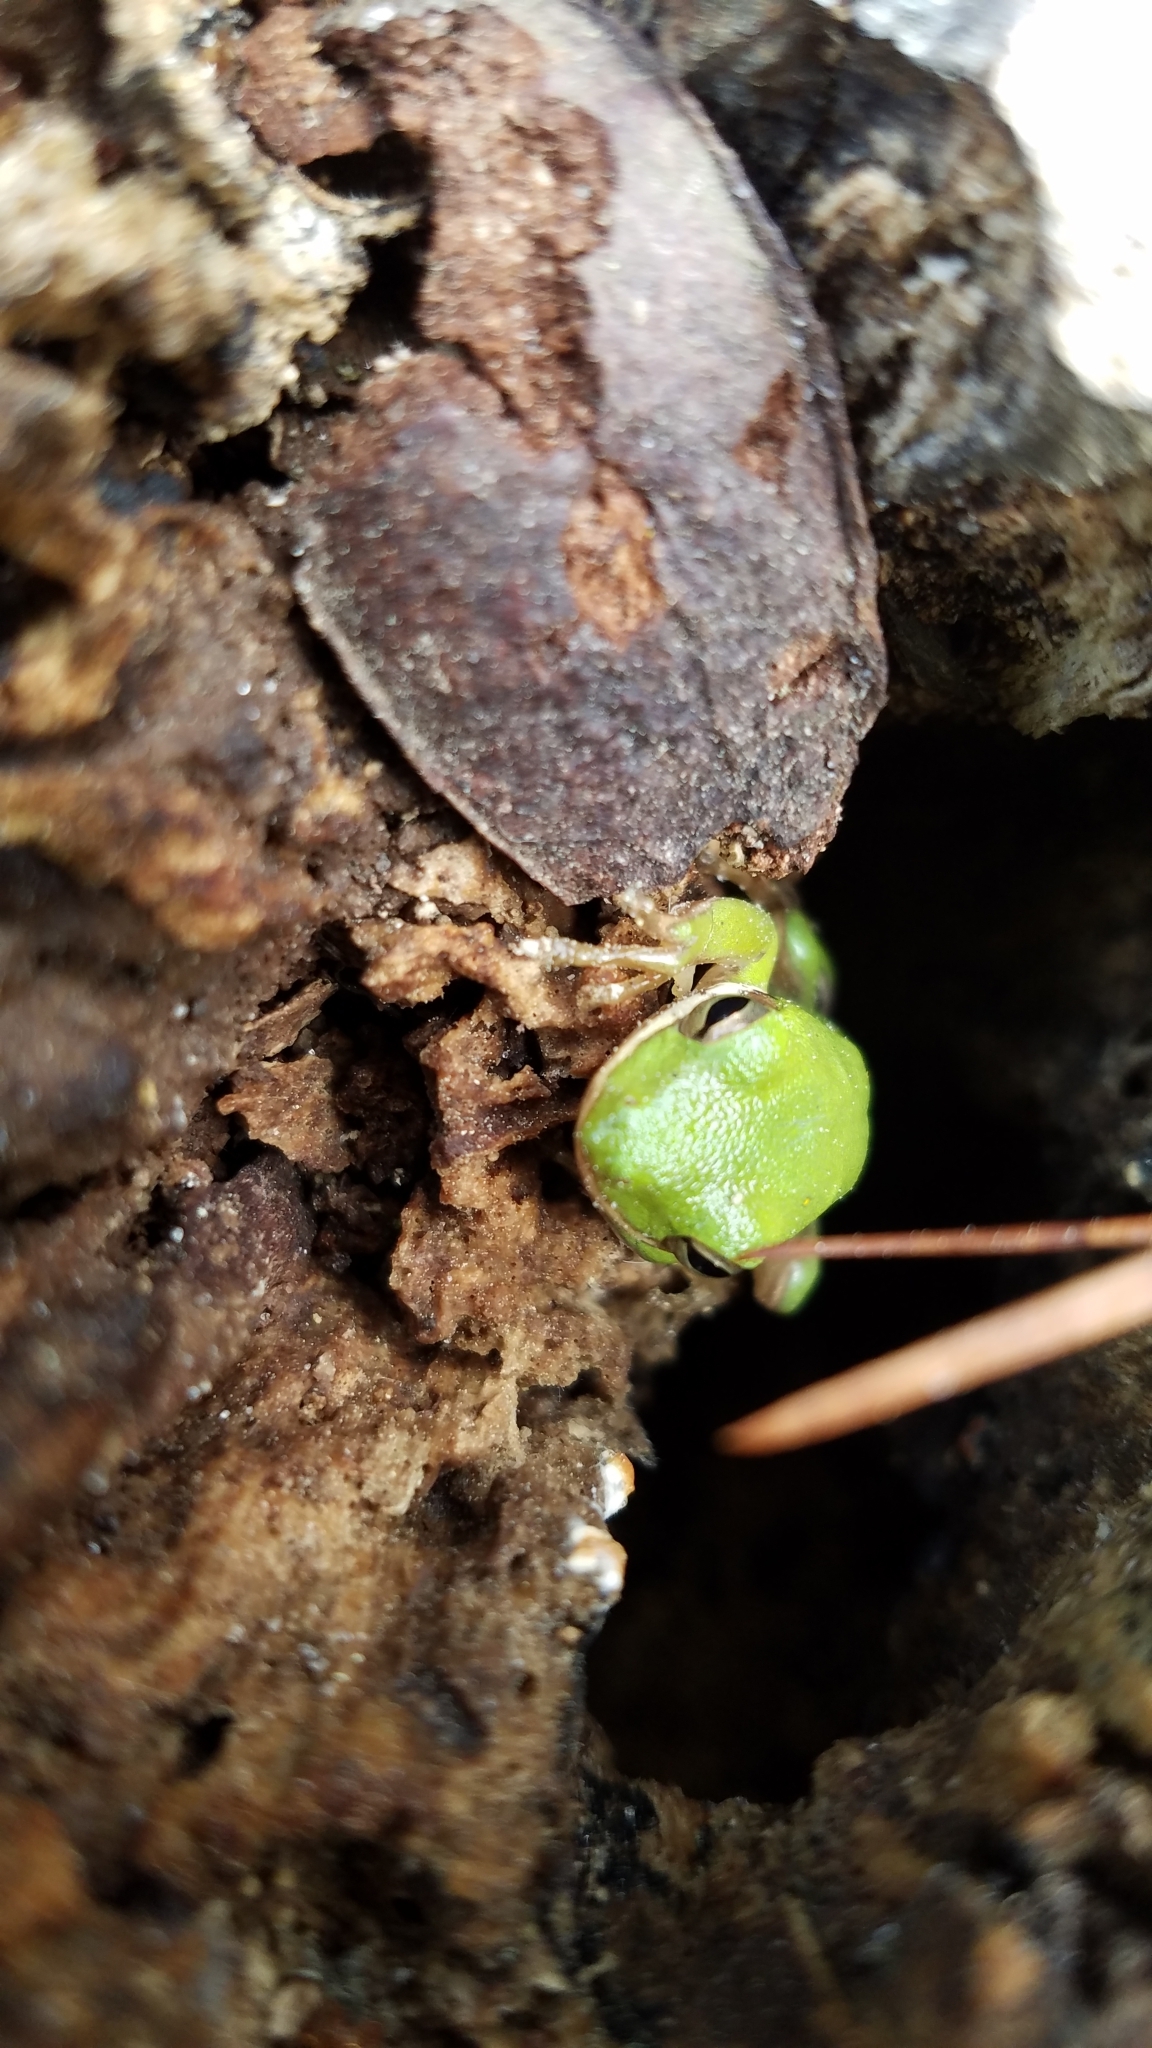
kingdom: Animalia
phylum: Chordata
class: Amphibia
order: Anura
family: Hylidae
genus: Dryophytes
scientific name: Dryophytes cinereus
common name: Green treefrog
